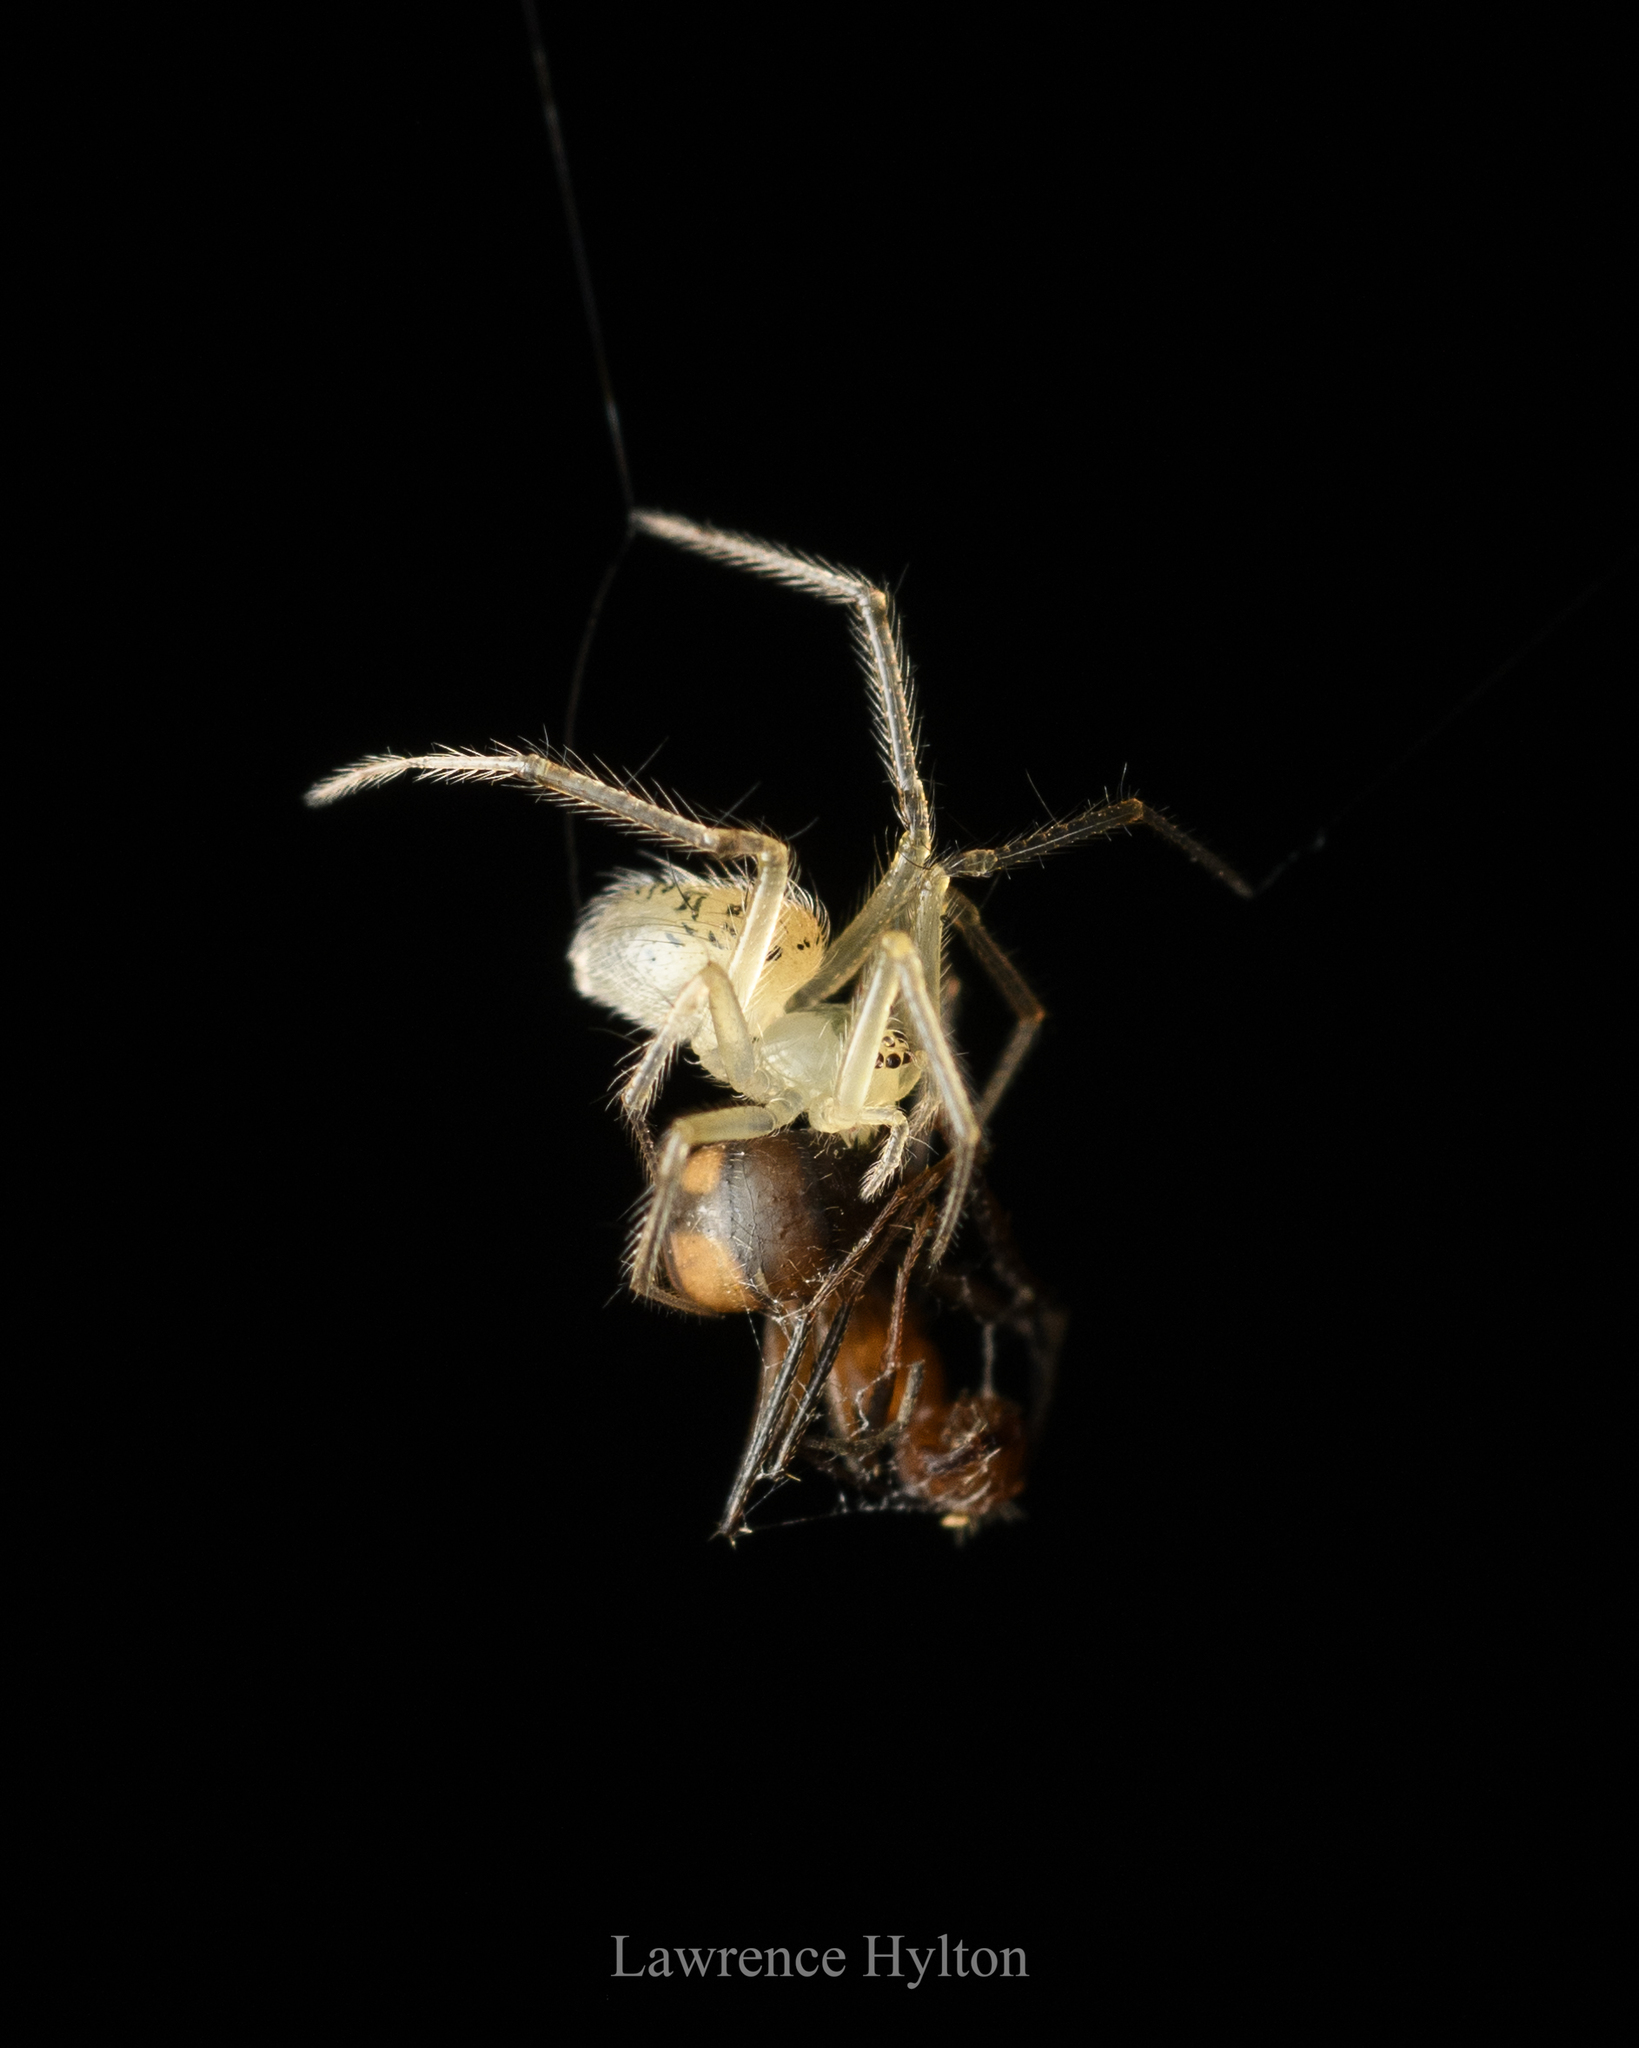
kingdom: Animalia
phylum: Arthropoda
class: Arachnida
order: Araneae
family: Theridiidae
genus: Phycosoma
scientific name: Phycosoma digitula
